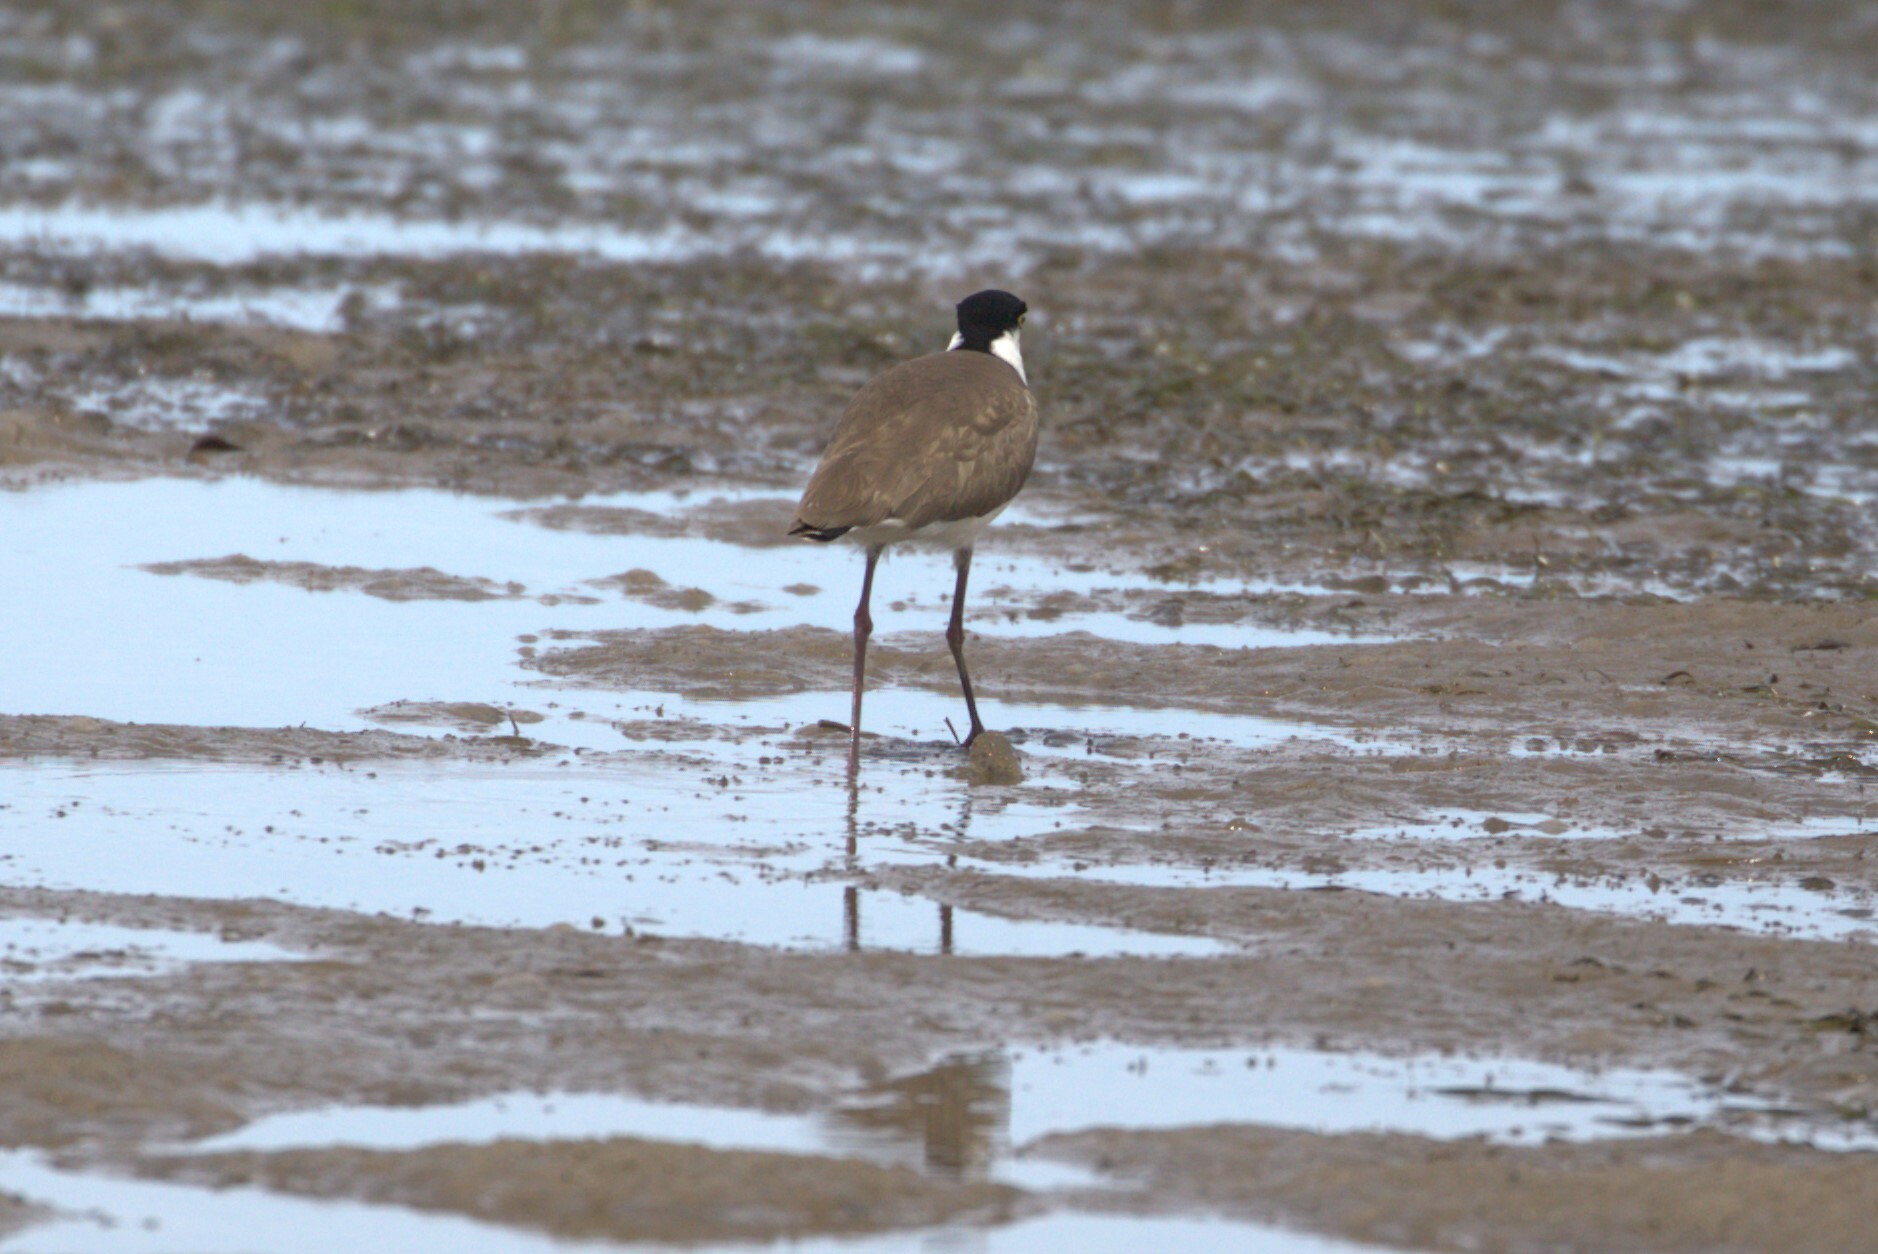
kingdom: Animalia
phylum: Chordata
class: Aves
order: Charadriiformes
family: Charadriidae
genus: Vanellus
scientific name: Vanellus miles
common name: Masked lapwing
